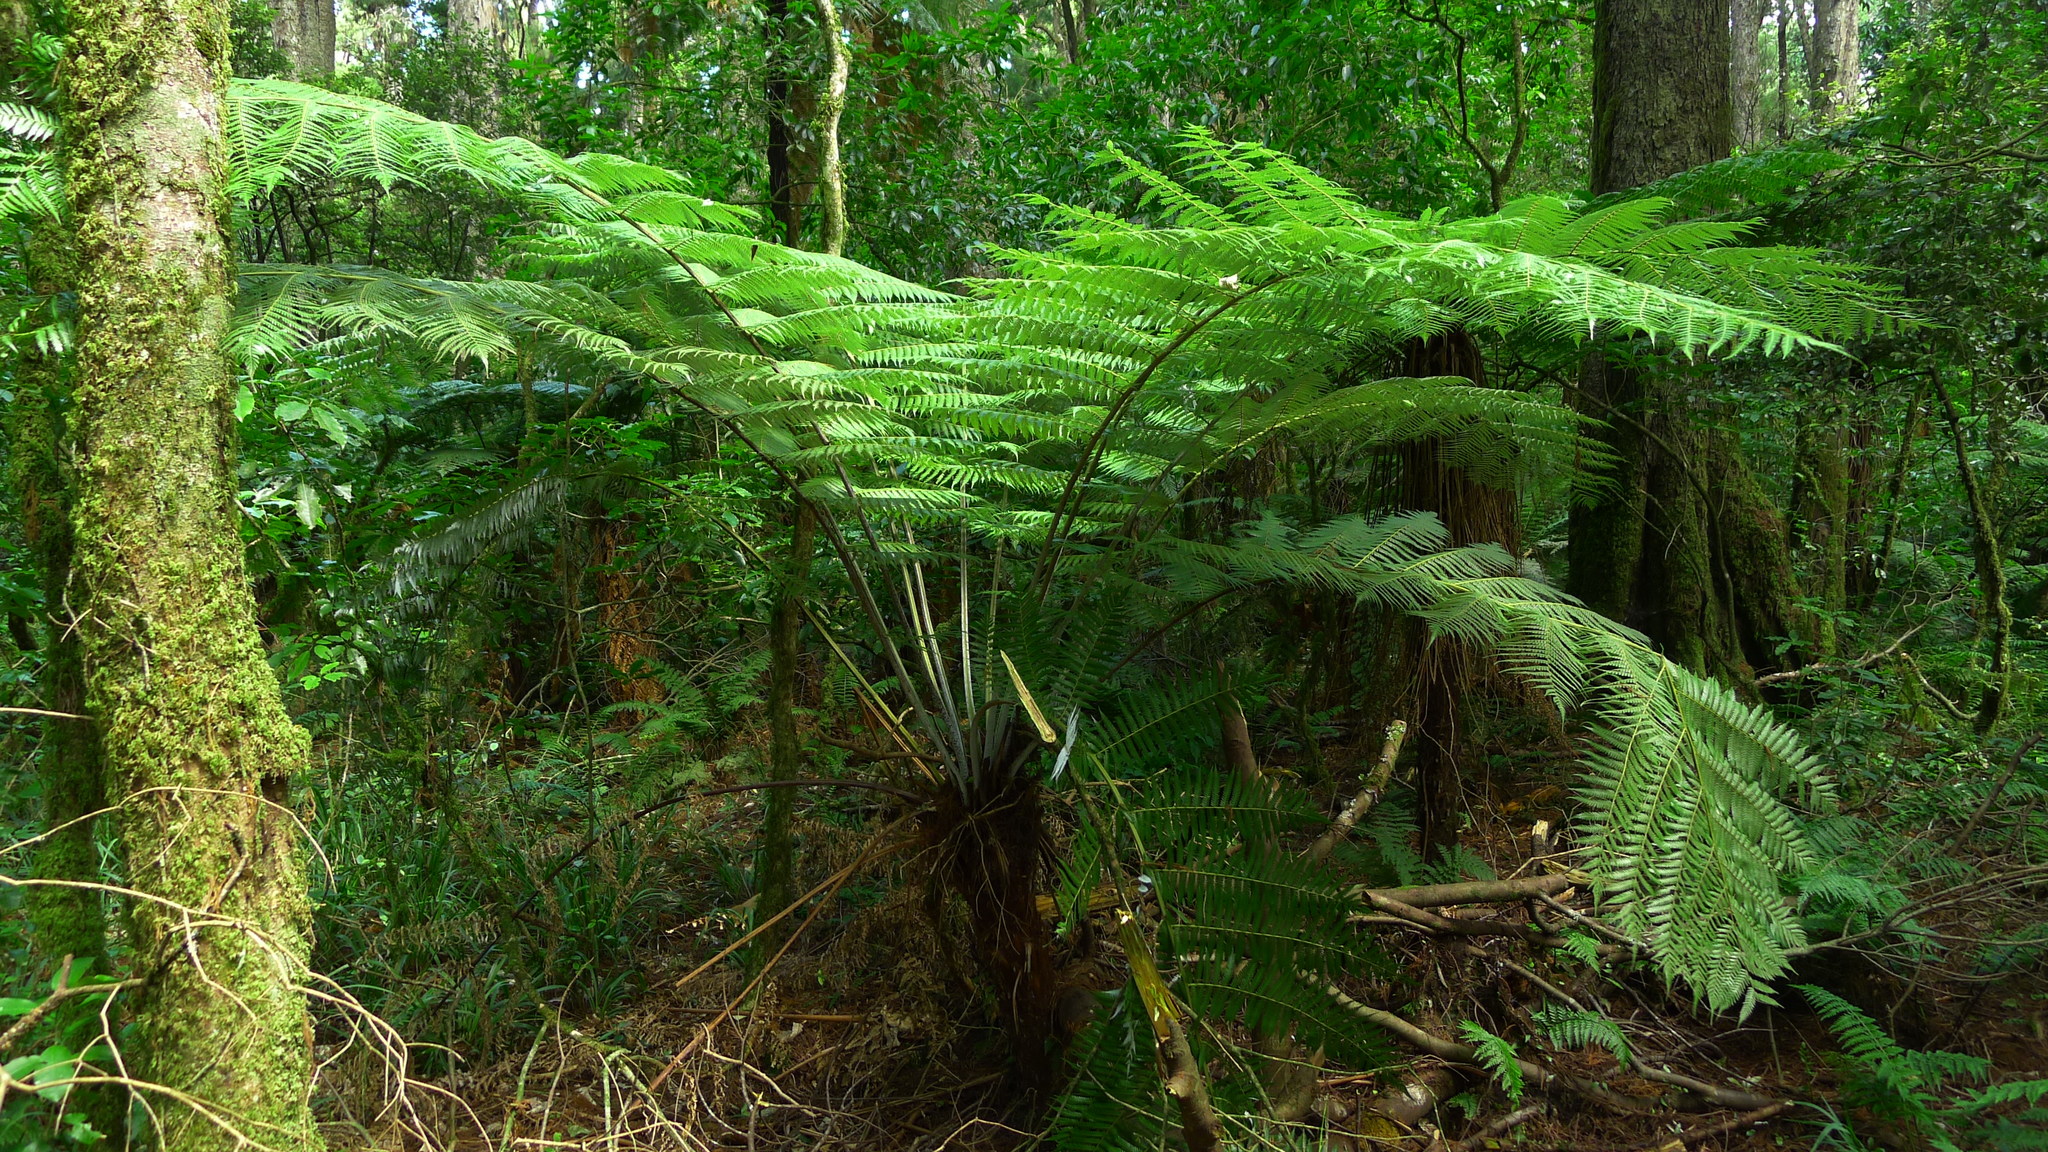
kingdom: Plantae
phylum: Tracheophyta
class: Polypodiopsida
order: Cyatheales
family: Cyatheaceae
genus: Alsophila
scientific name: Alsophila dealbata
